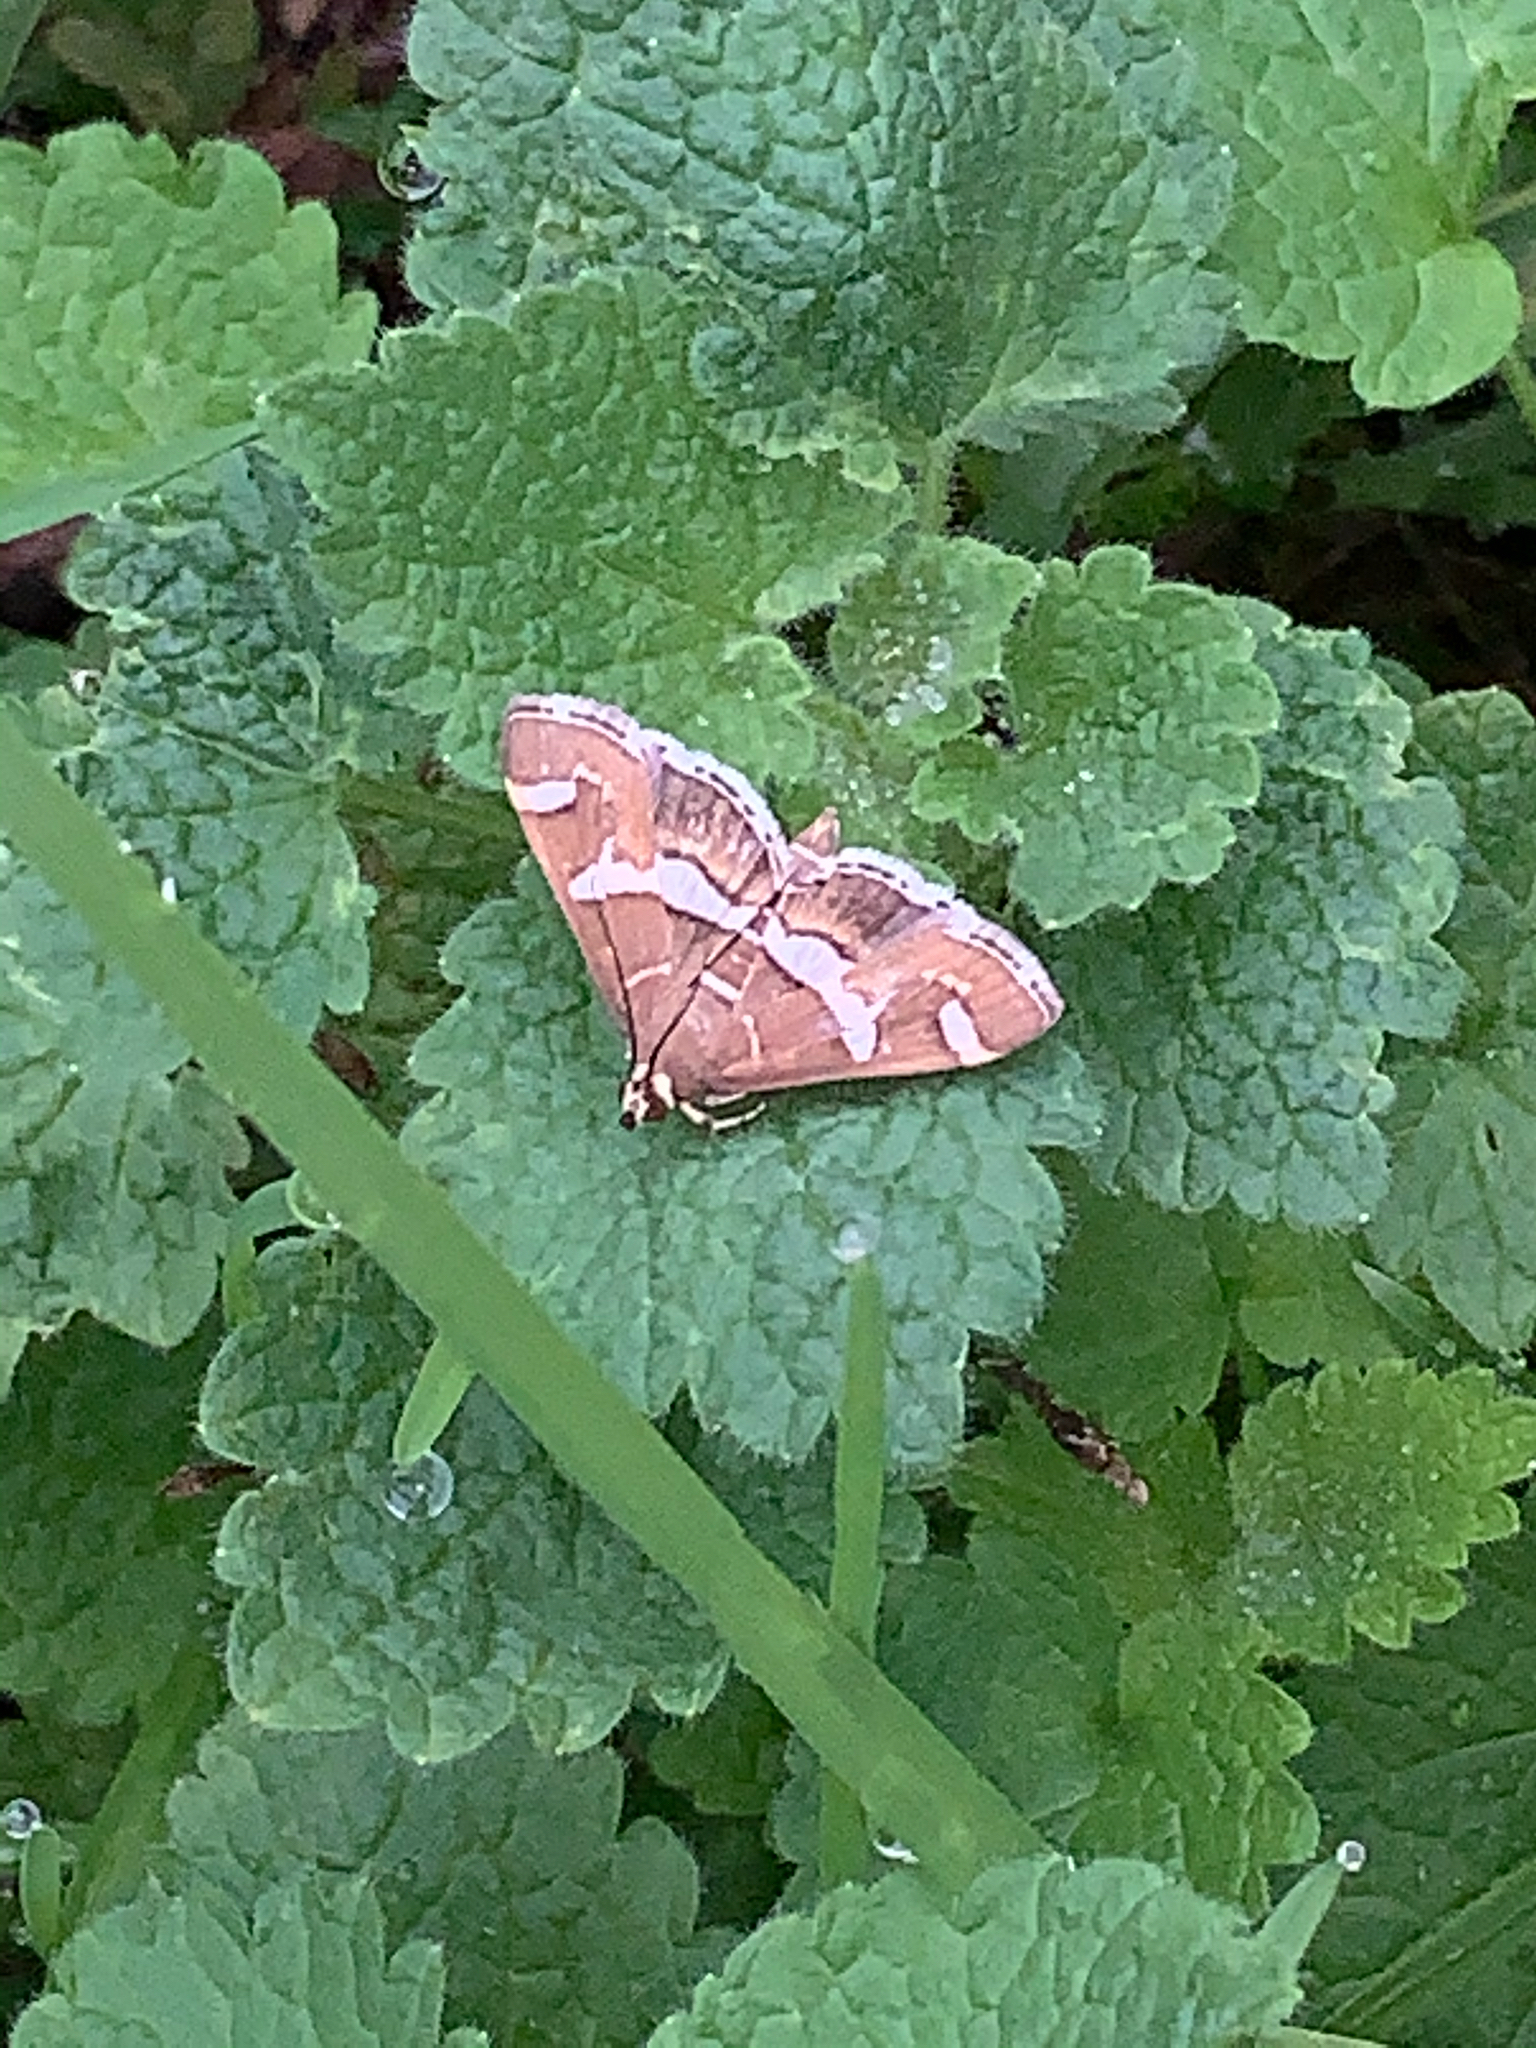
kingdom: Animalia
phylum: Arthropoda
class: Insecta
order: Lepidoptera
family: Crambidae
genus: Spoladea
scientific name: Spoladea recurvalis
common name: Beet webworm moth
